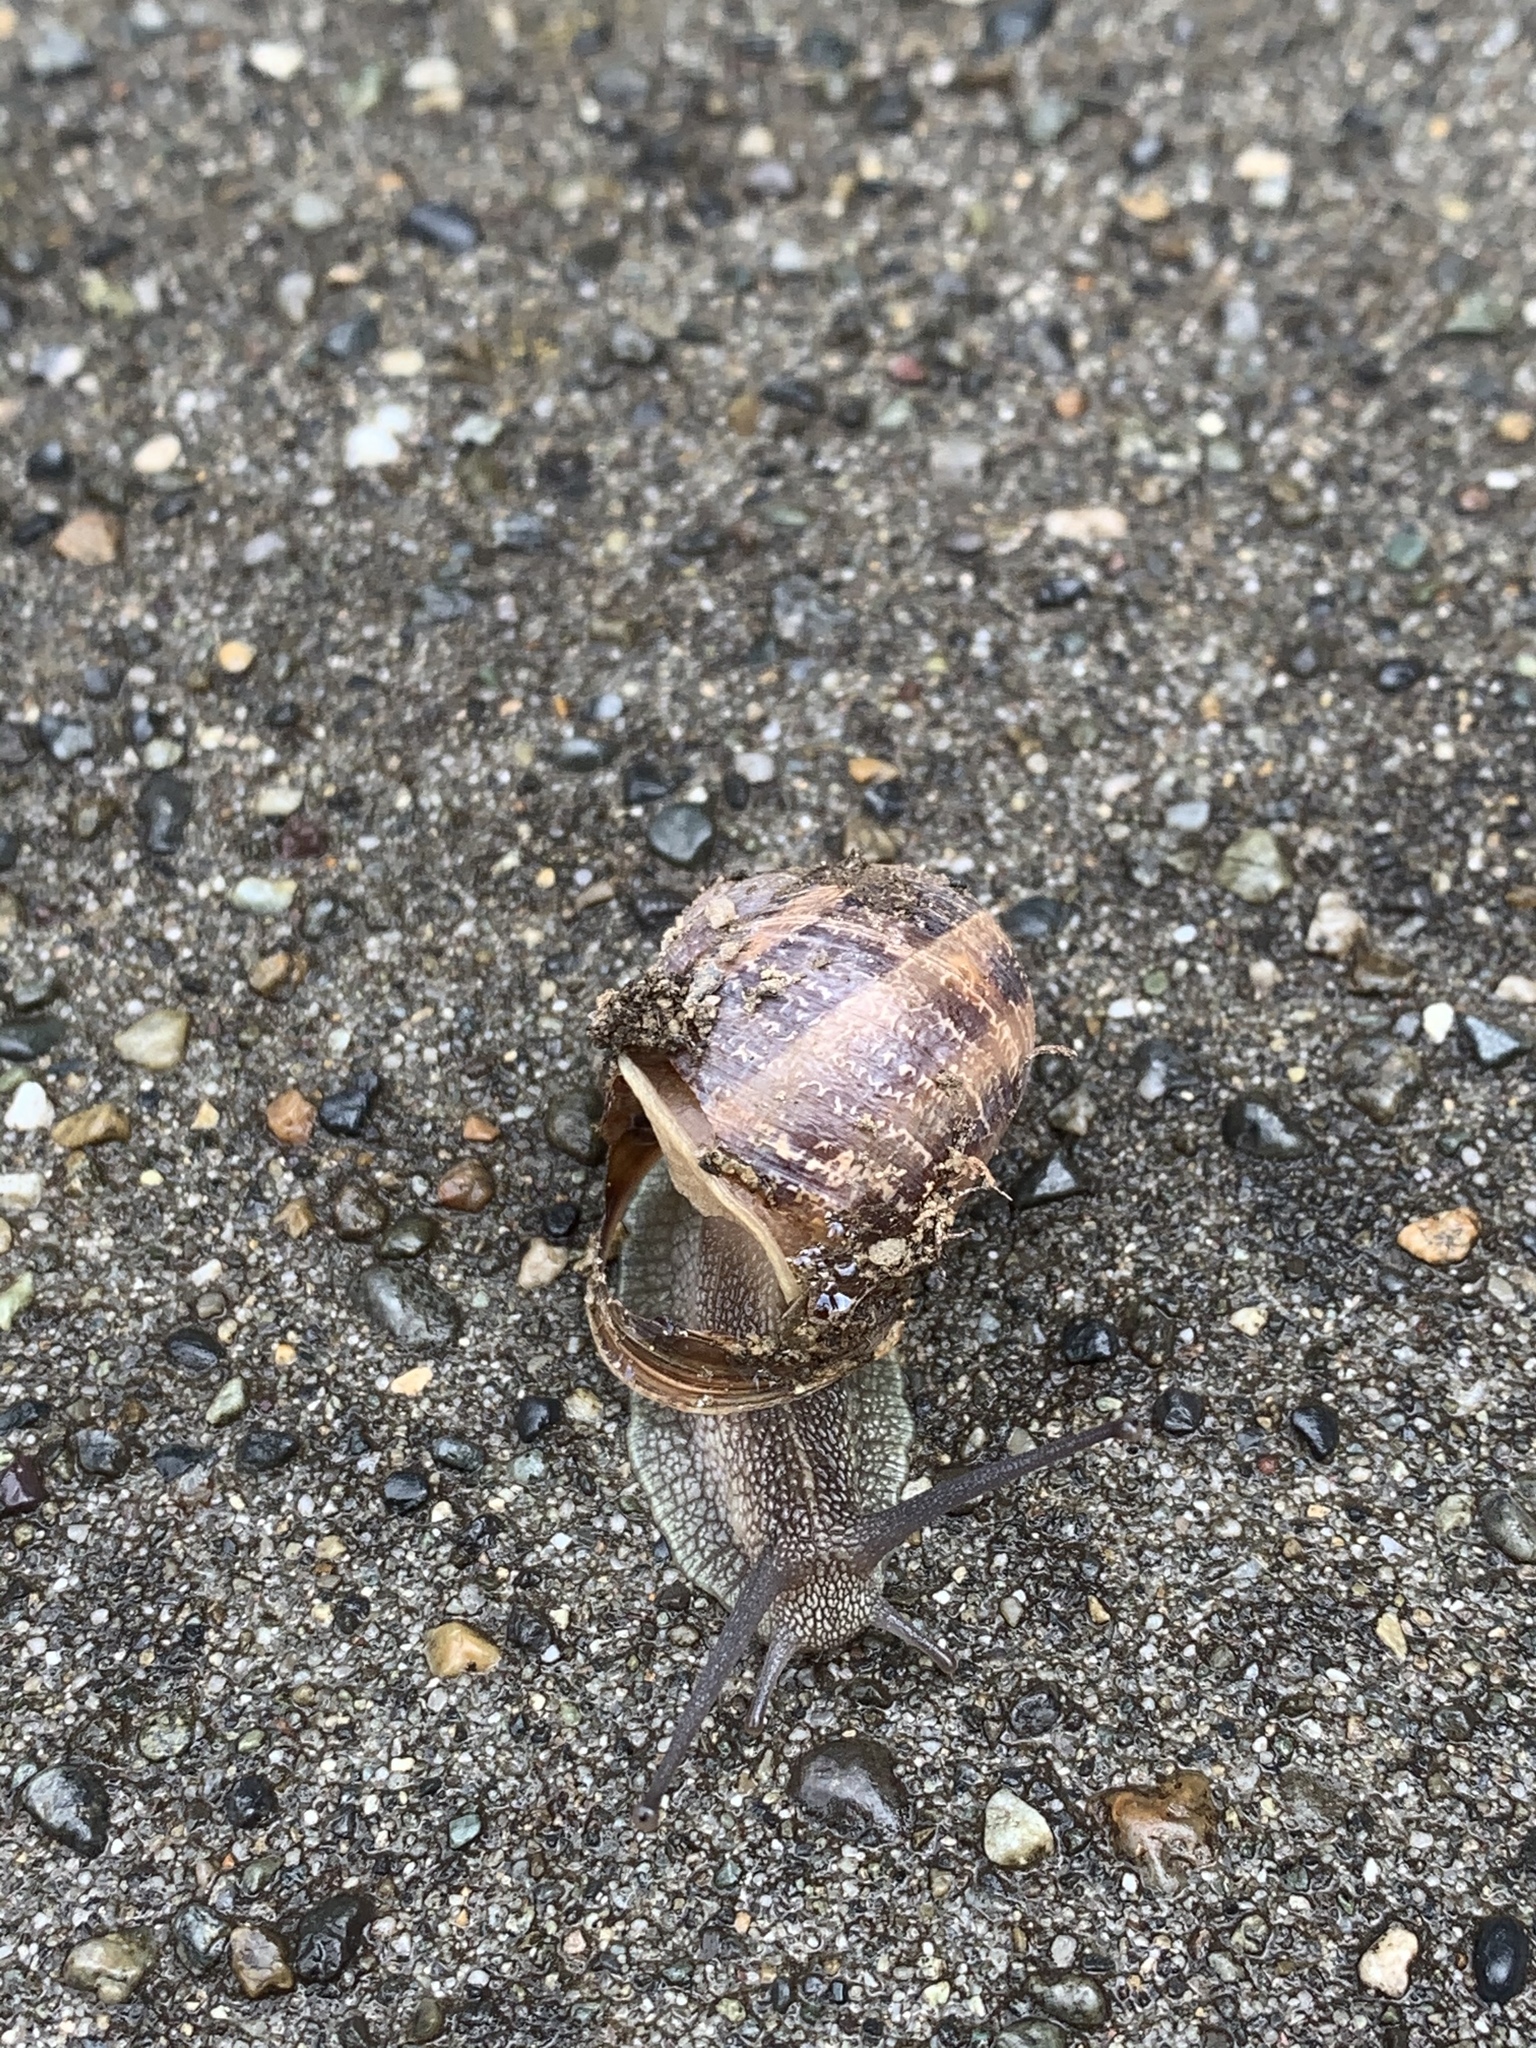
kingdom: Animalia
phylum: Mollusca
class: Gastropoda
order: Stylommatophora
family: Helicidae
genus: Cornu
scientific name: Cornu aspersum
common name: Brown garden snail
